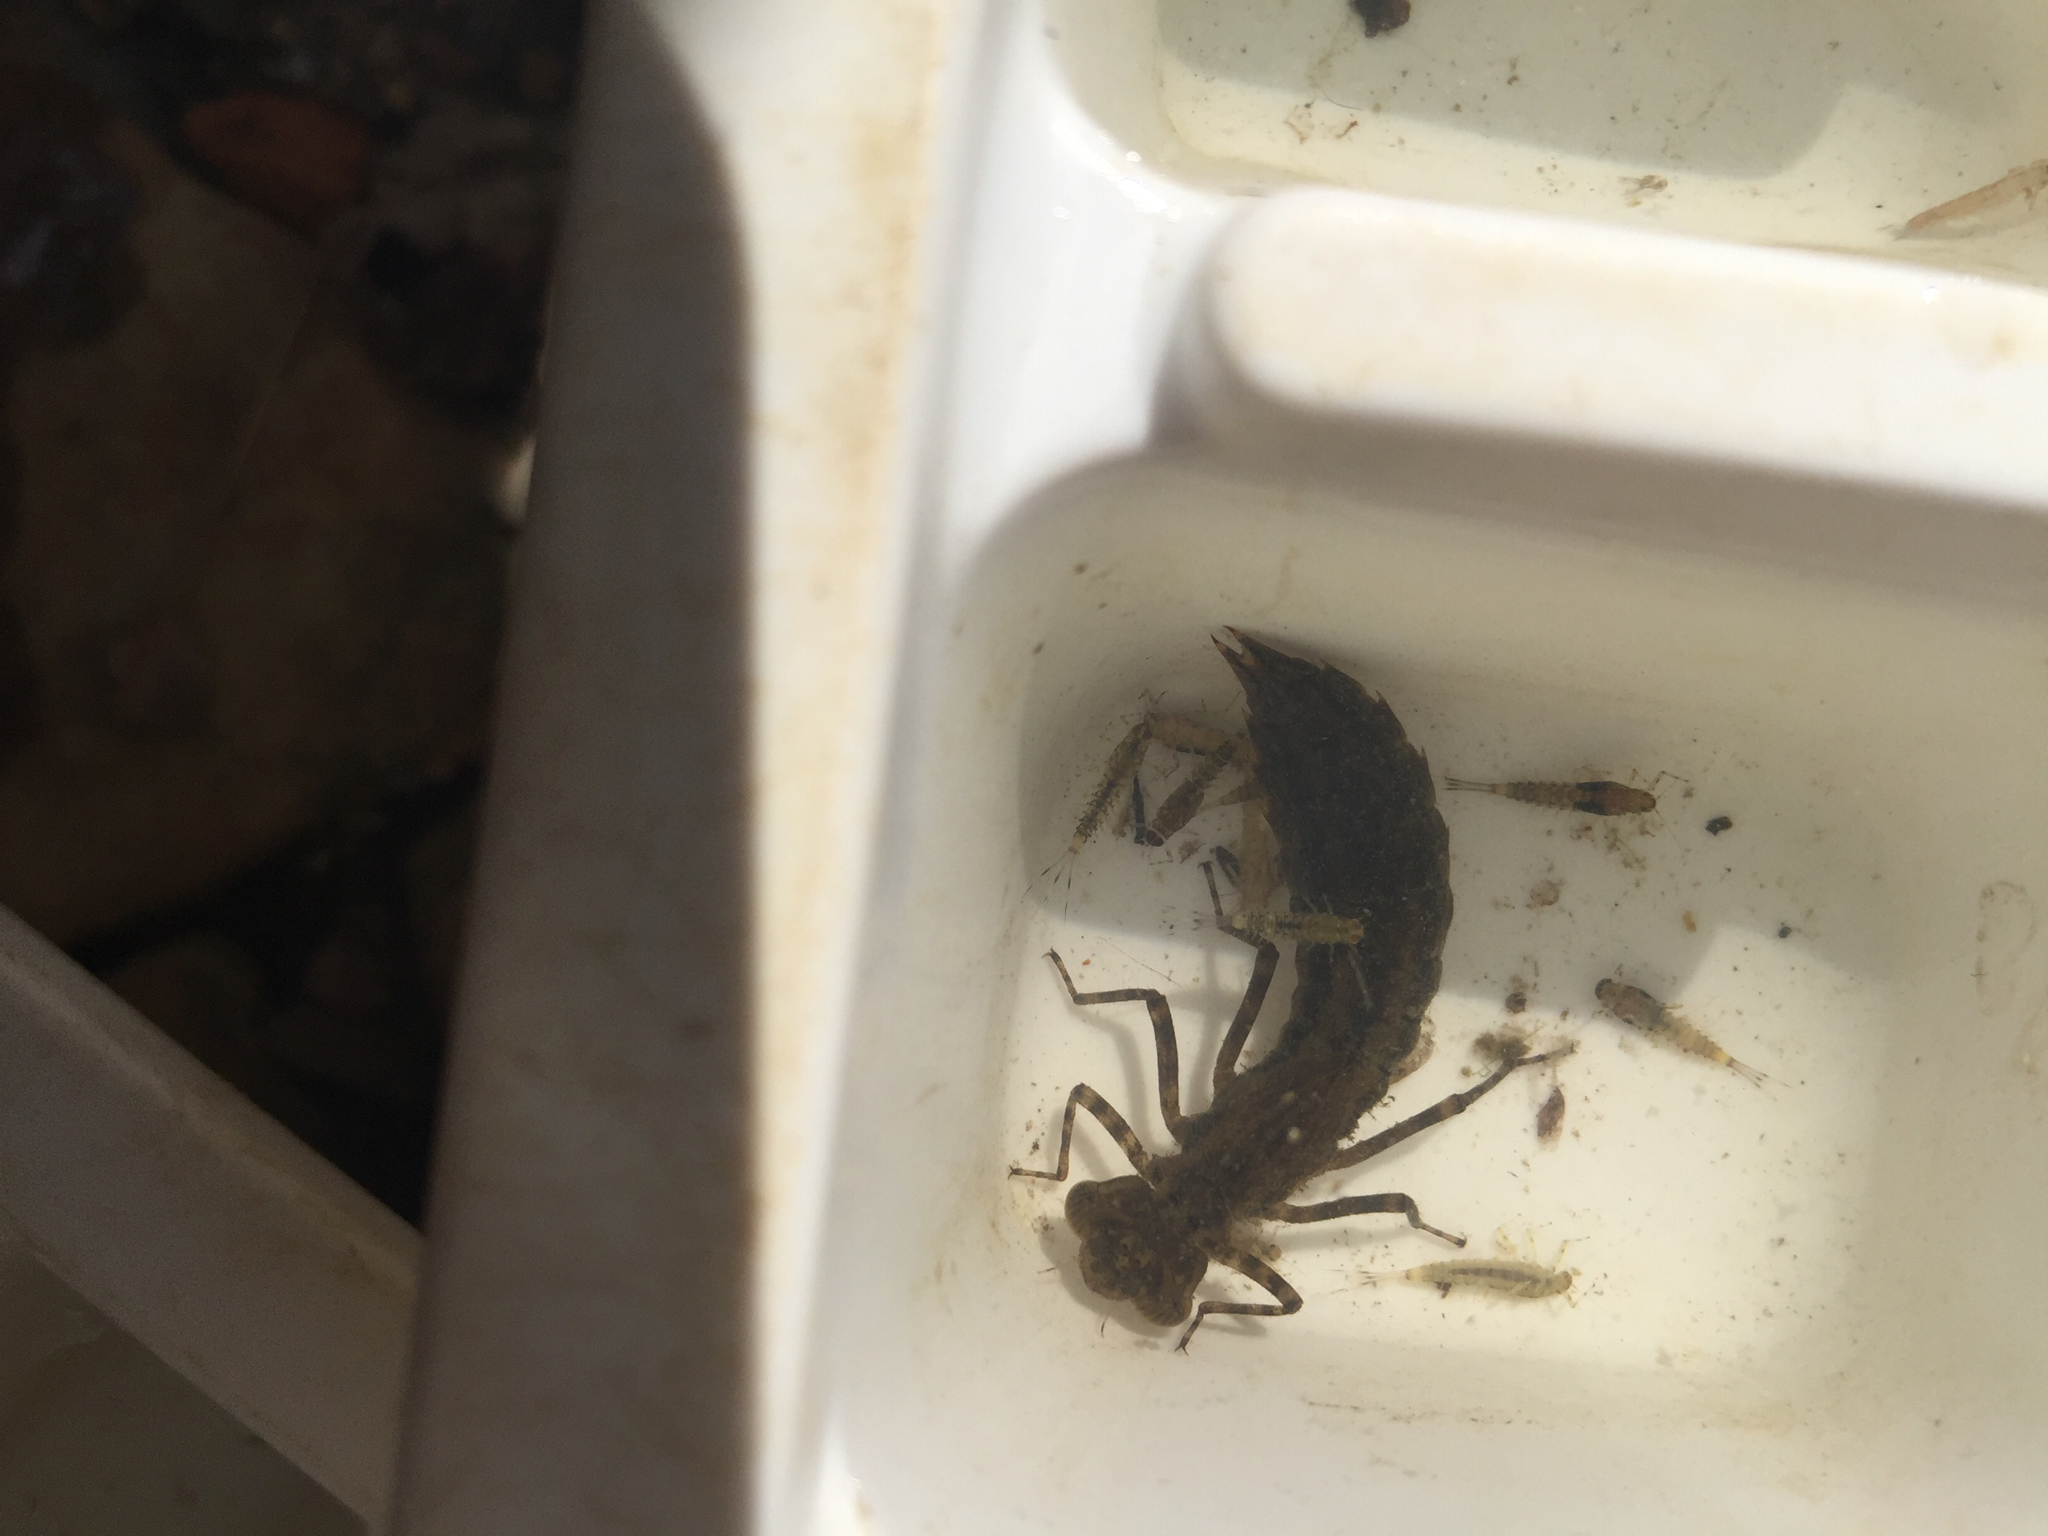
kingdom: Animalia
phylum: Arthropoda
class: Insecta
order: Odonata
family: Aeshnidae
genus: Aeshna
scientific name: Aeshna
